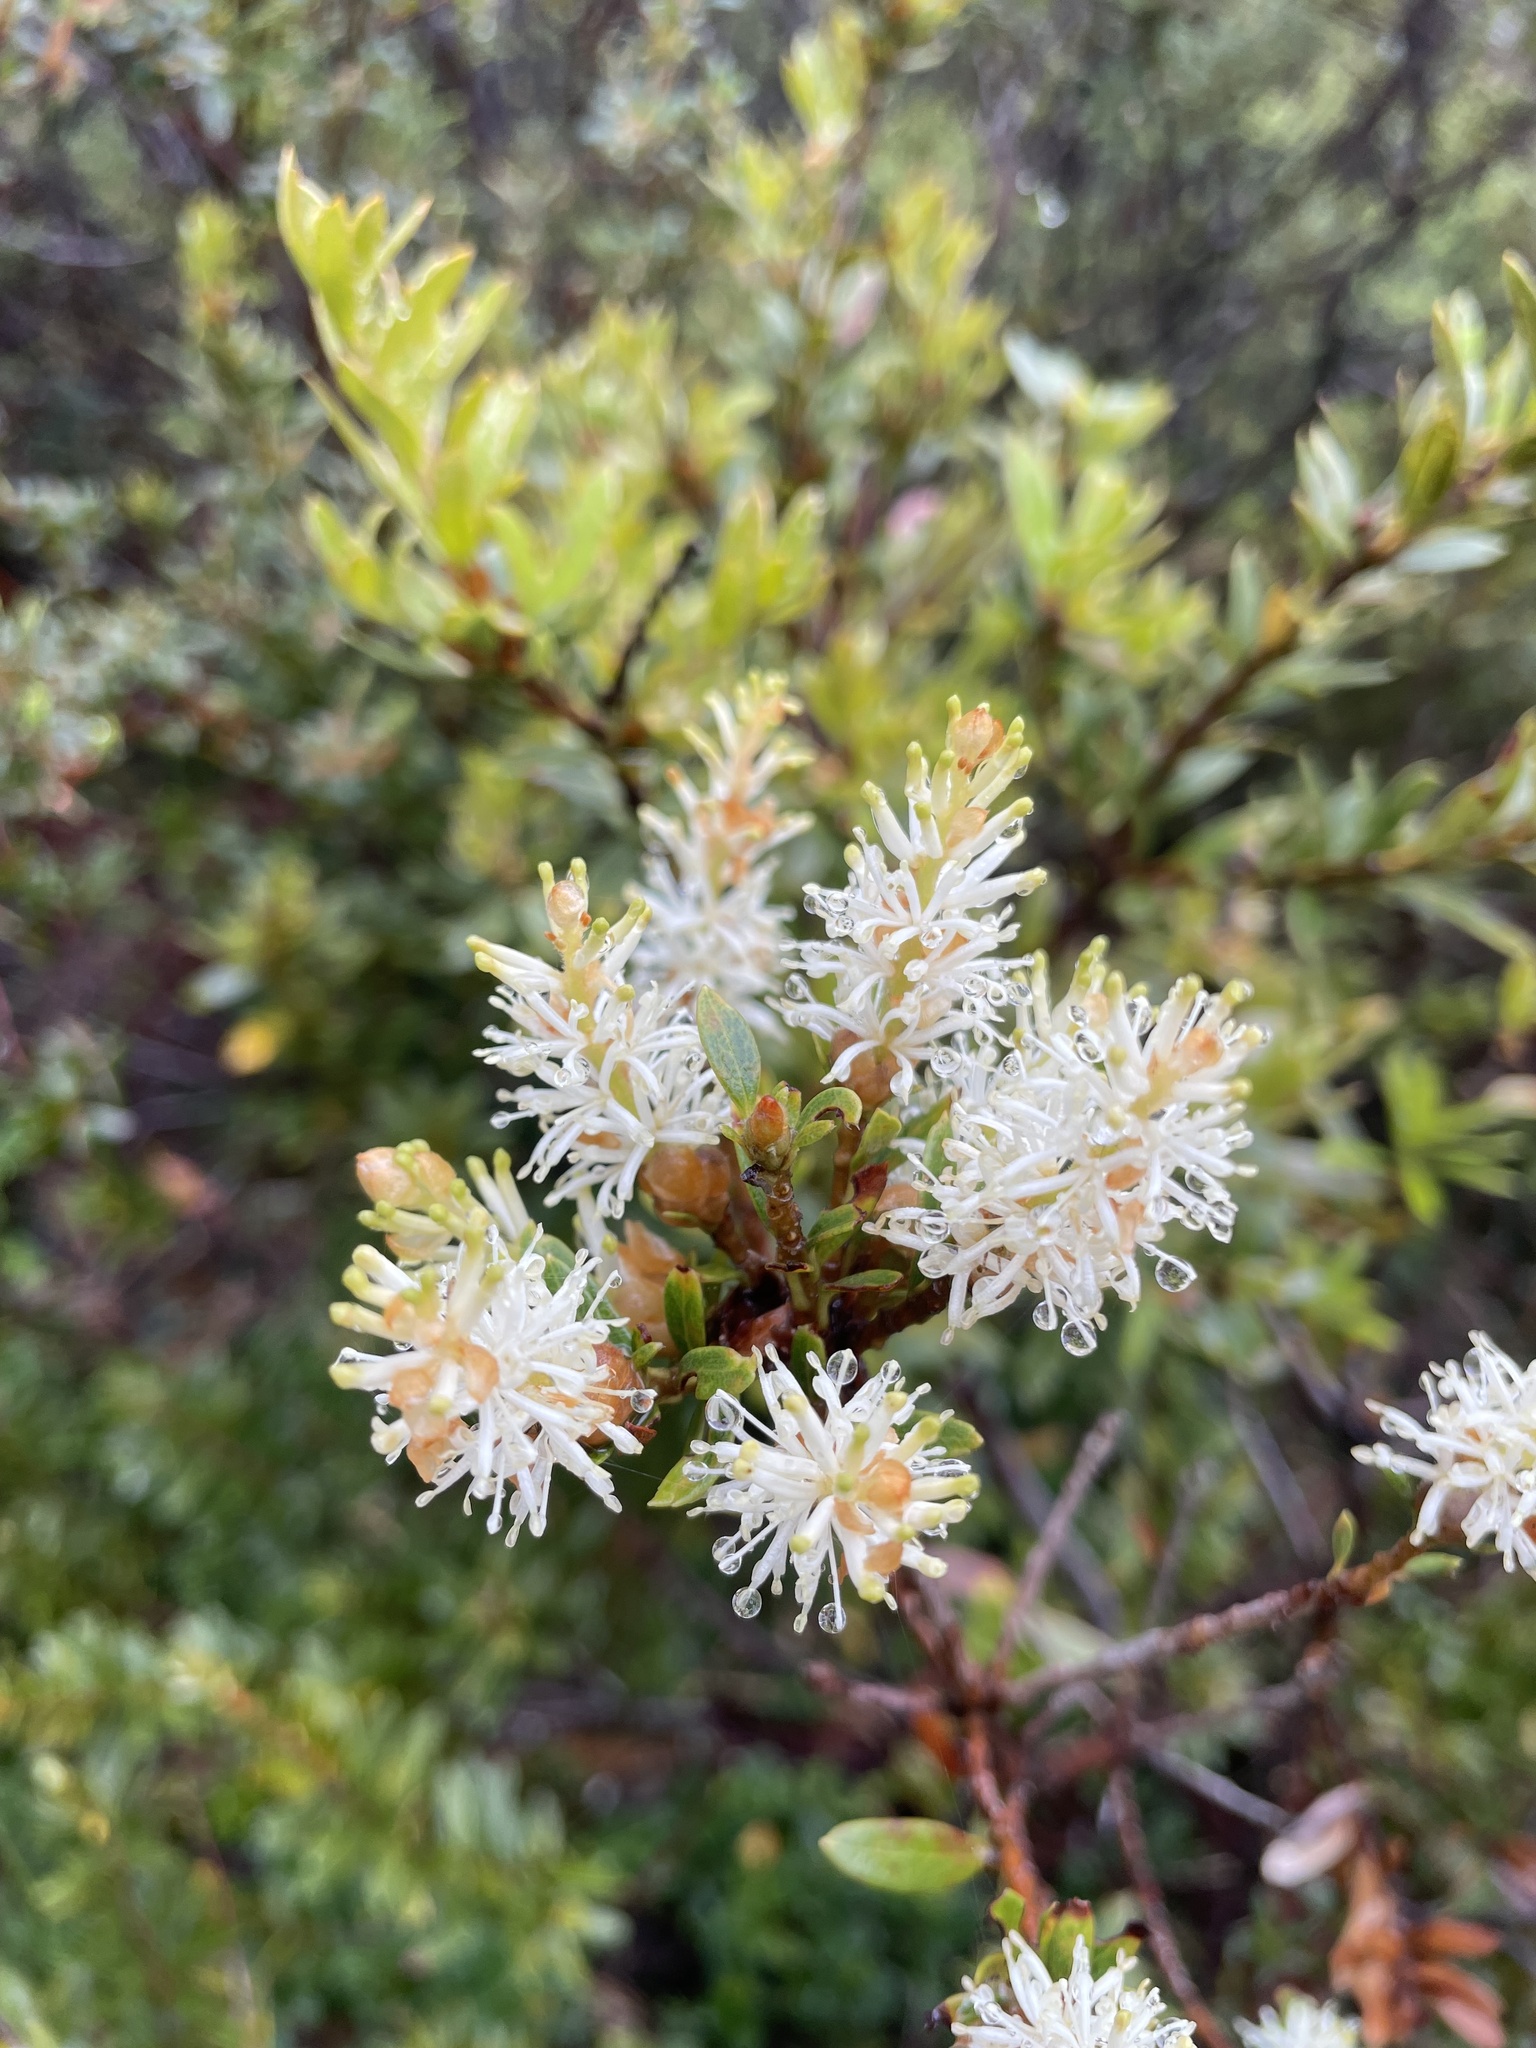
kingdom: Plantae
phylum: Tracheophyta
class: Magnoliopsida
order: Proteales
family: Proteaceae
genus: Orites
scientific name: Orites lancifolius
